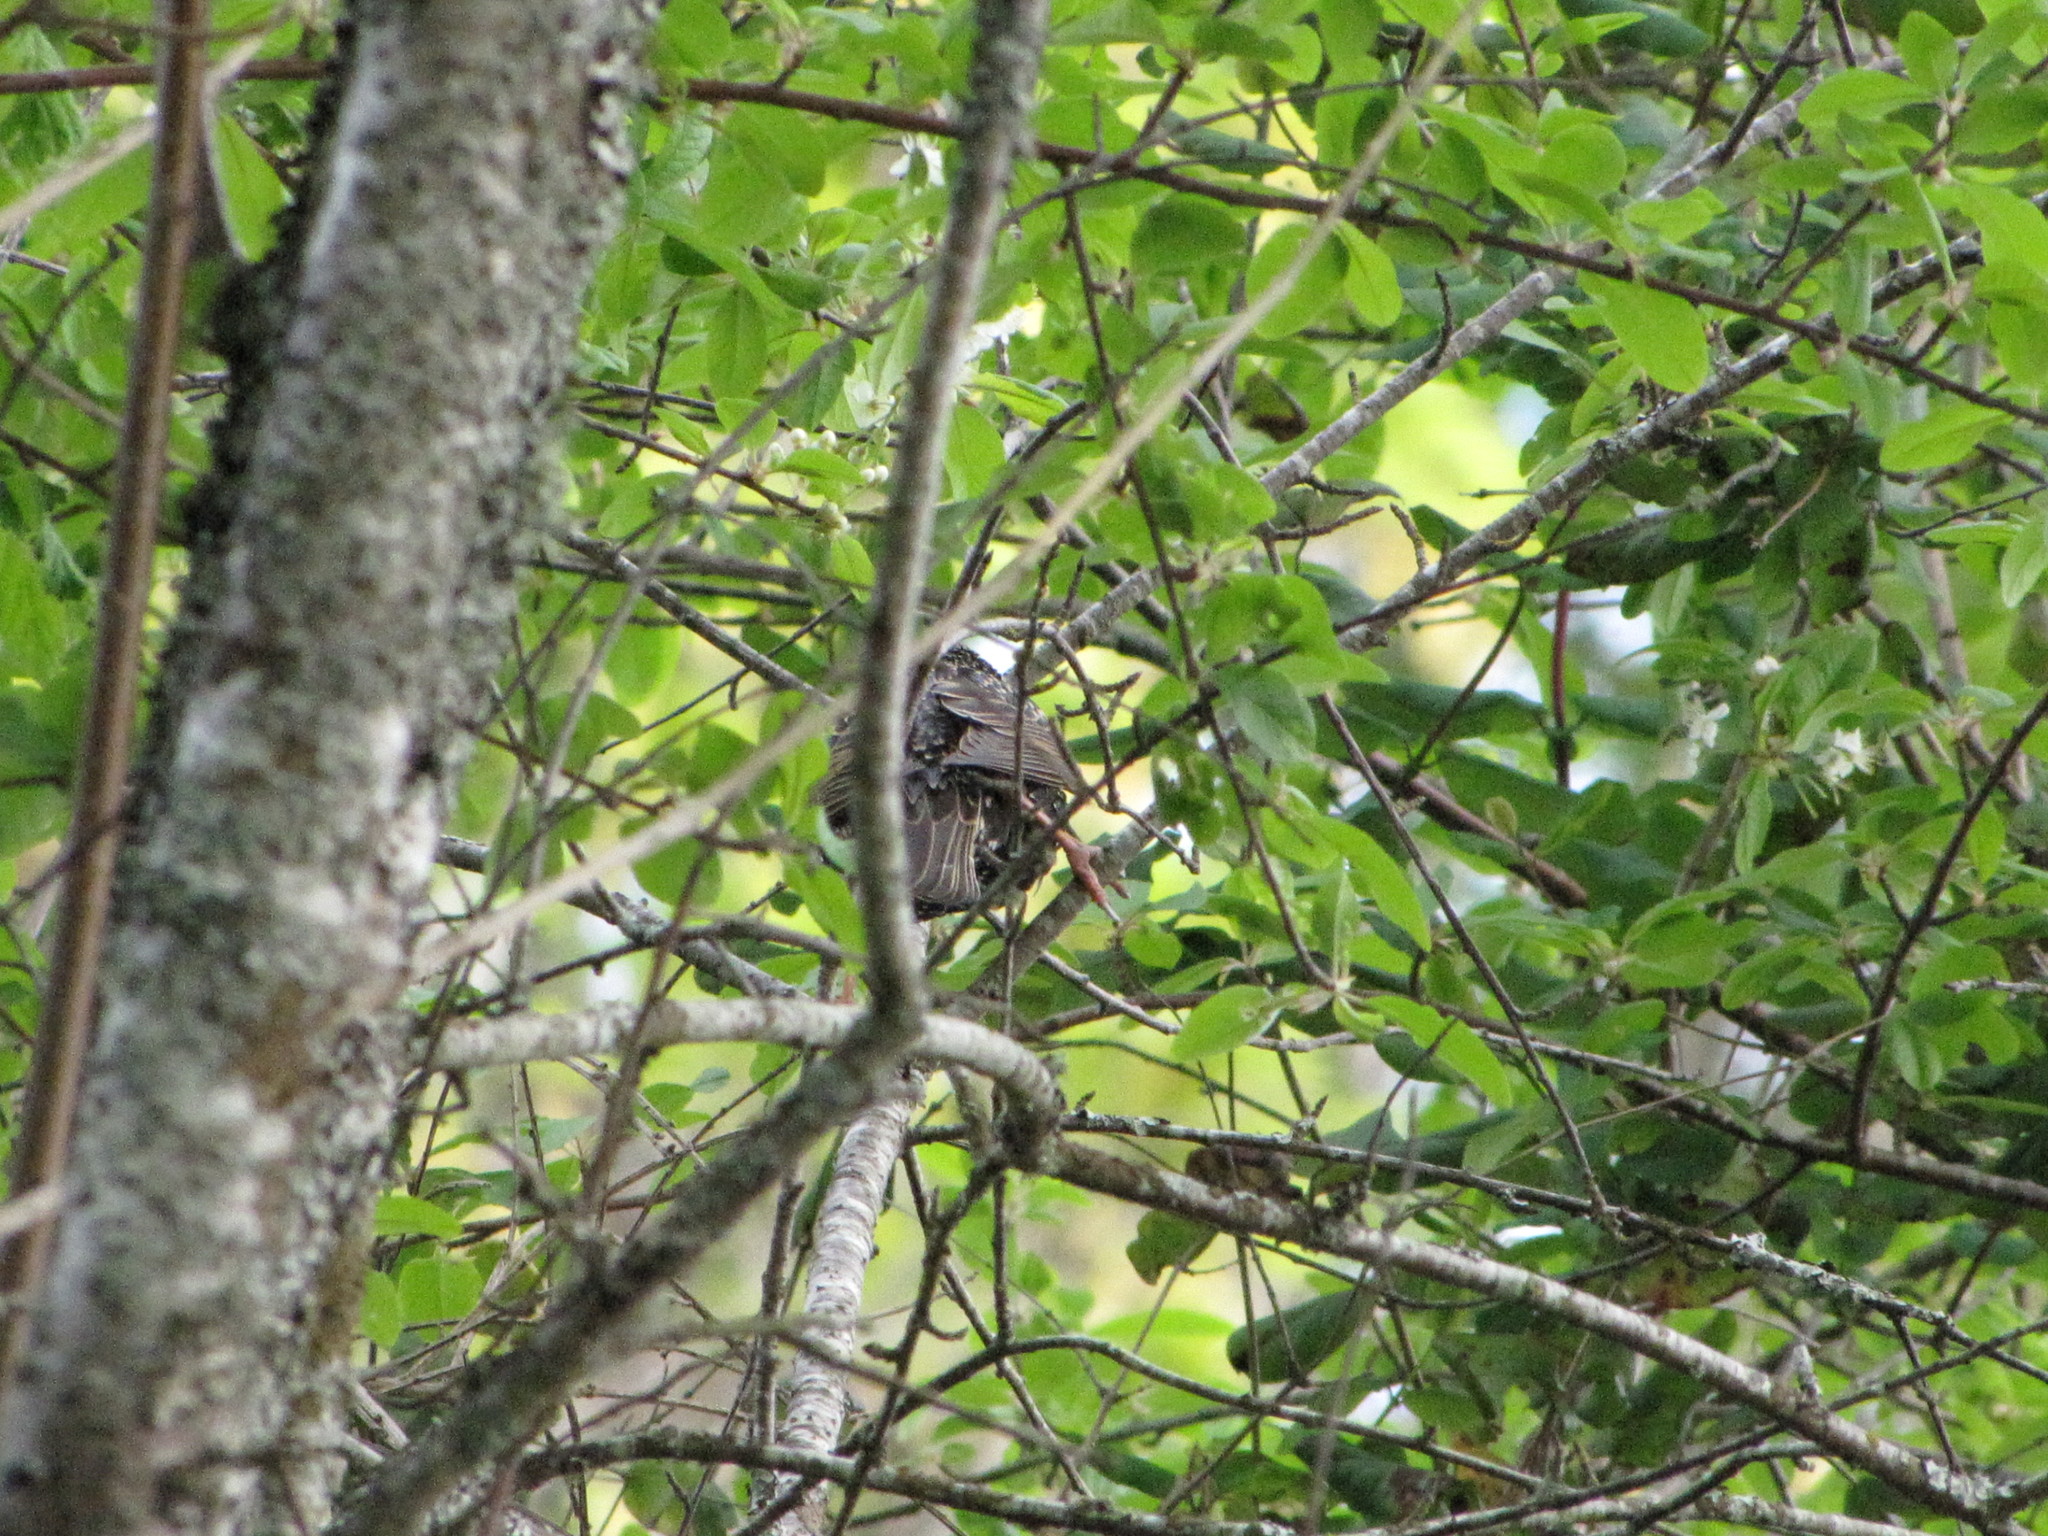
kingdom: Animalia
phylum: Chordata
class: Aves
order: Passeriformes
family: Sturnidae
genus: Sturnus
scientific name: Sturnus vulgaris
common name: Common starling
